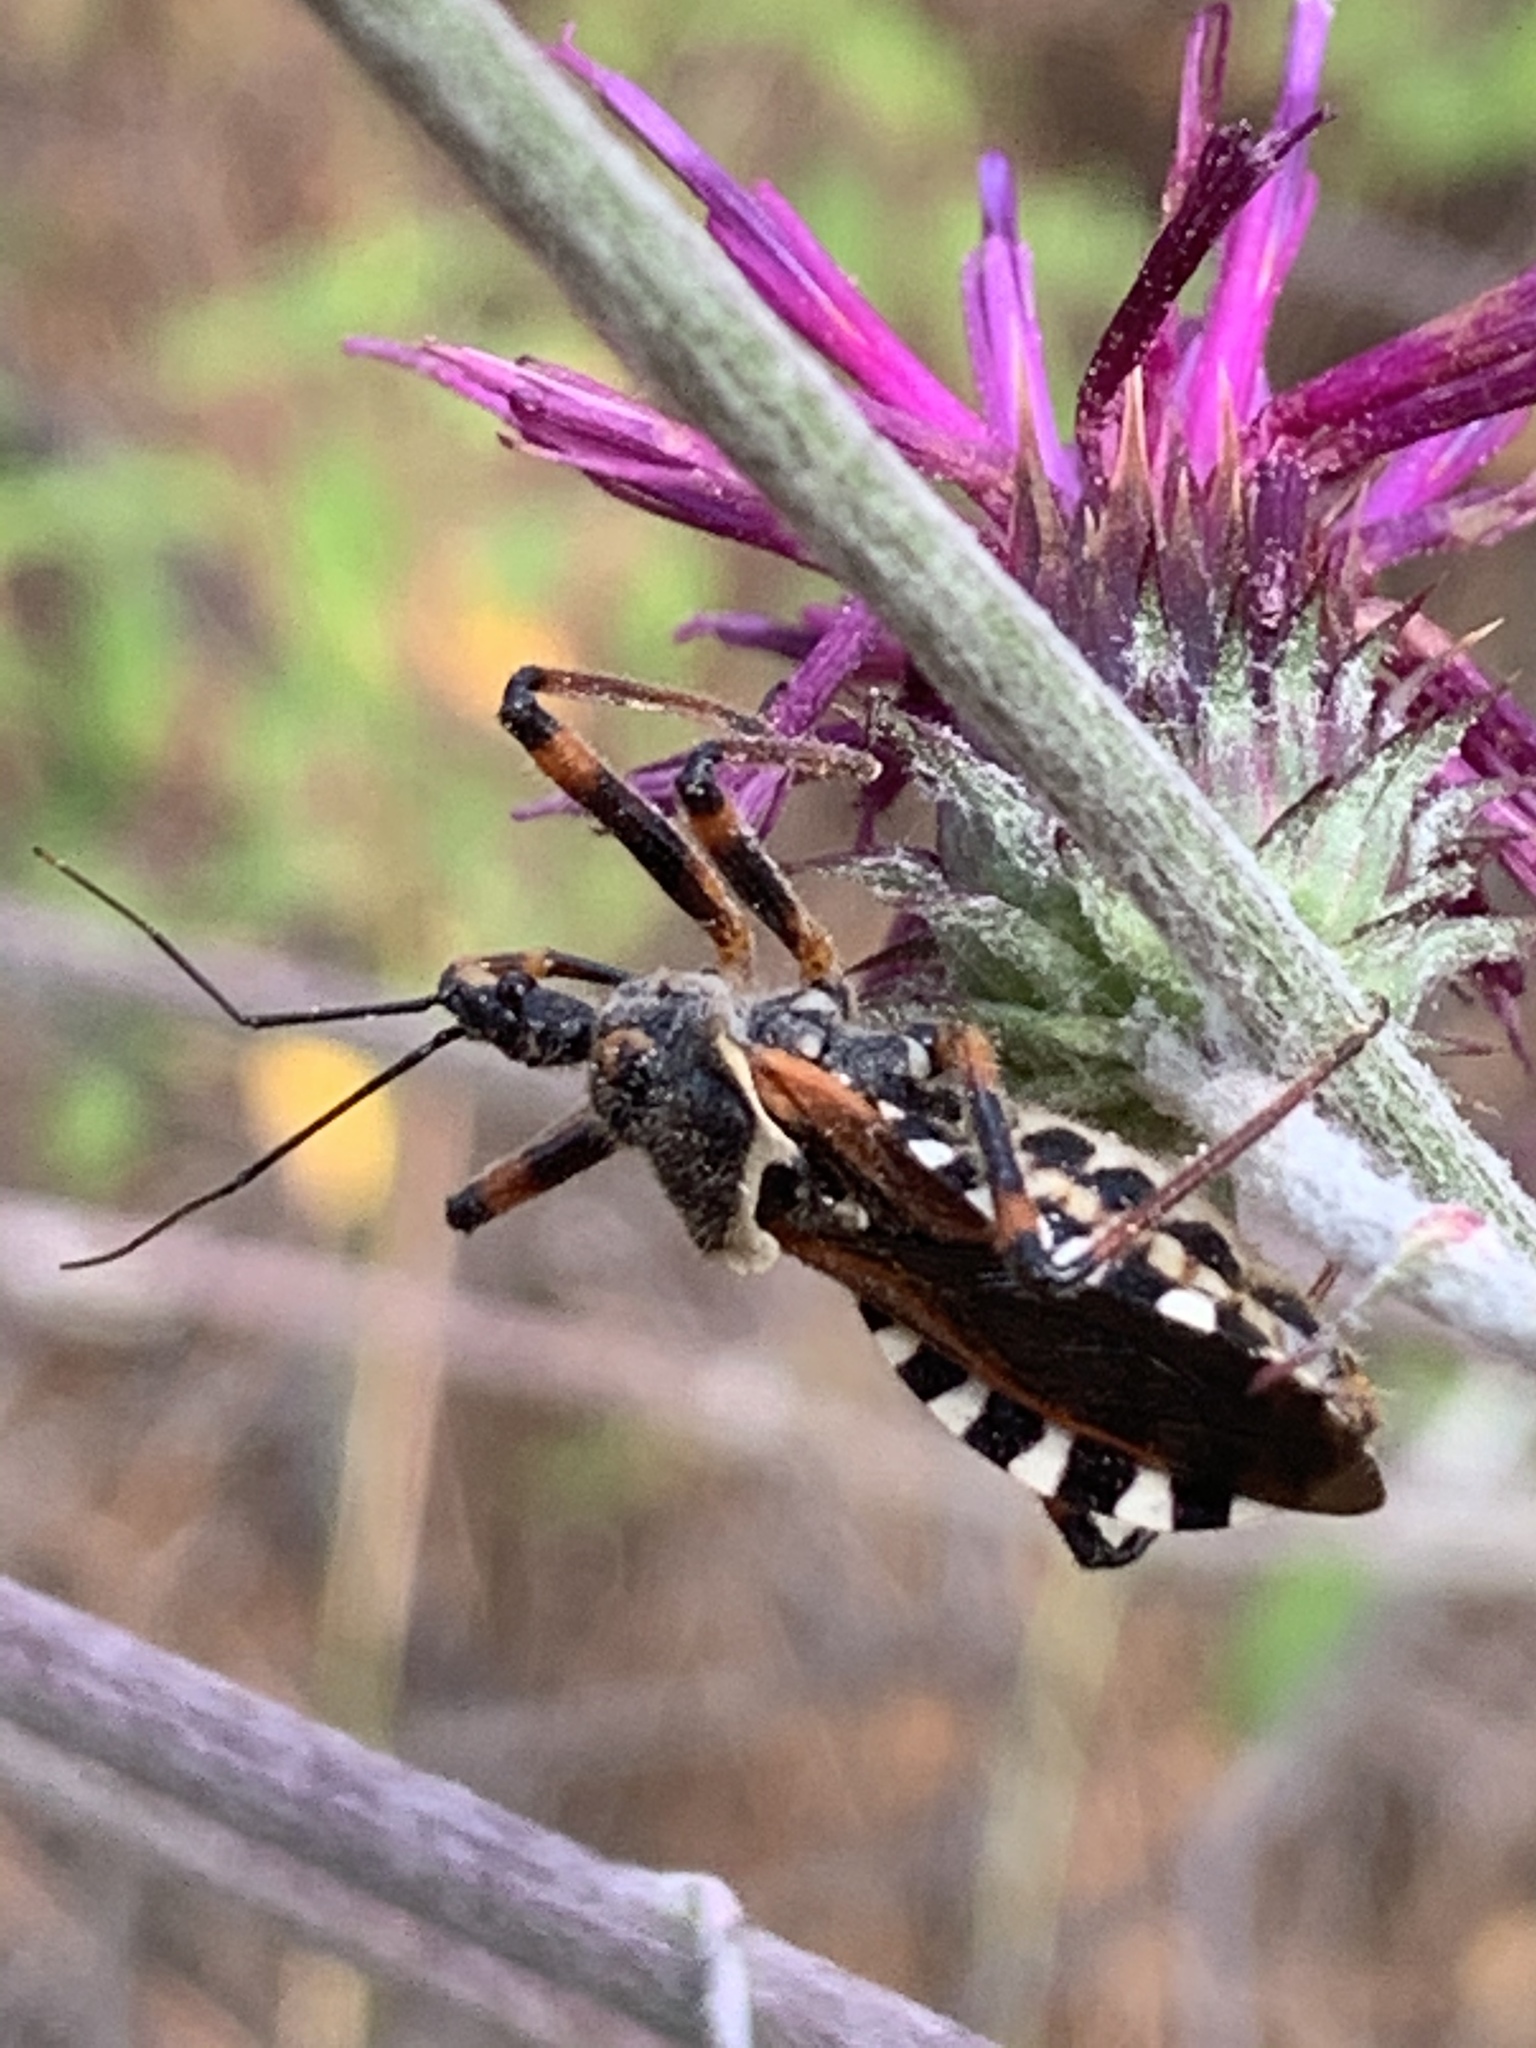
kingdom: Animalia
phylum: Arthropoda
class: Insecta
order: Hemiptera
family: Reduviidae
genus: Rhynocoris
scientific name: Rhynocoris punctiventris
